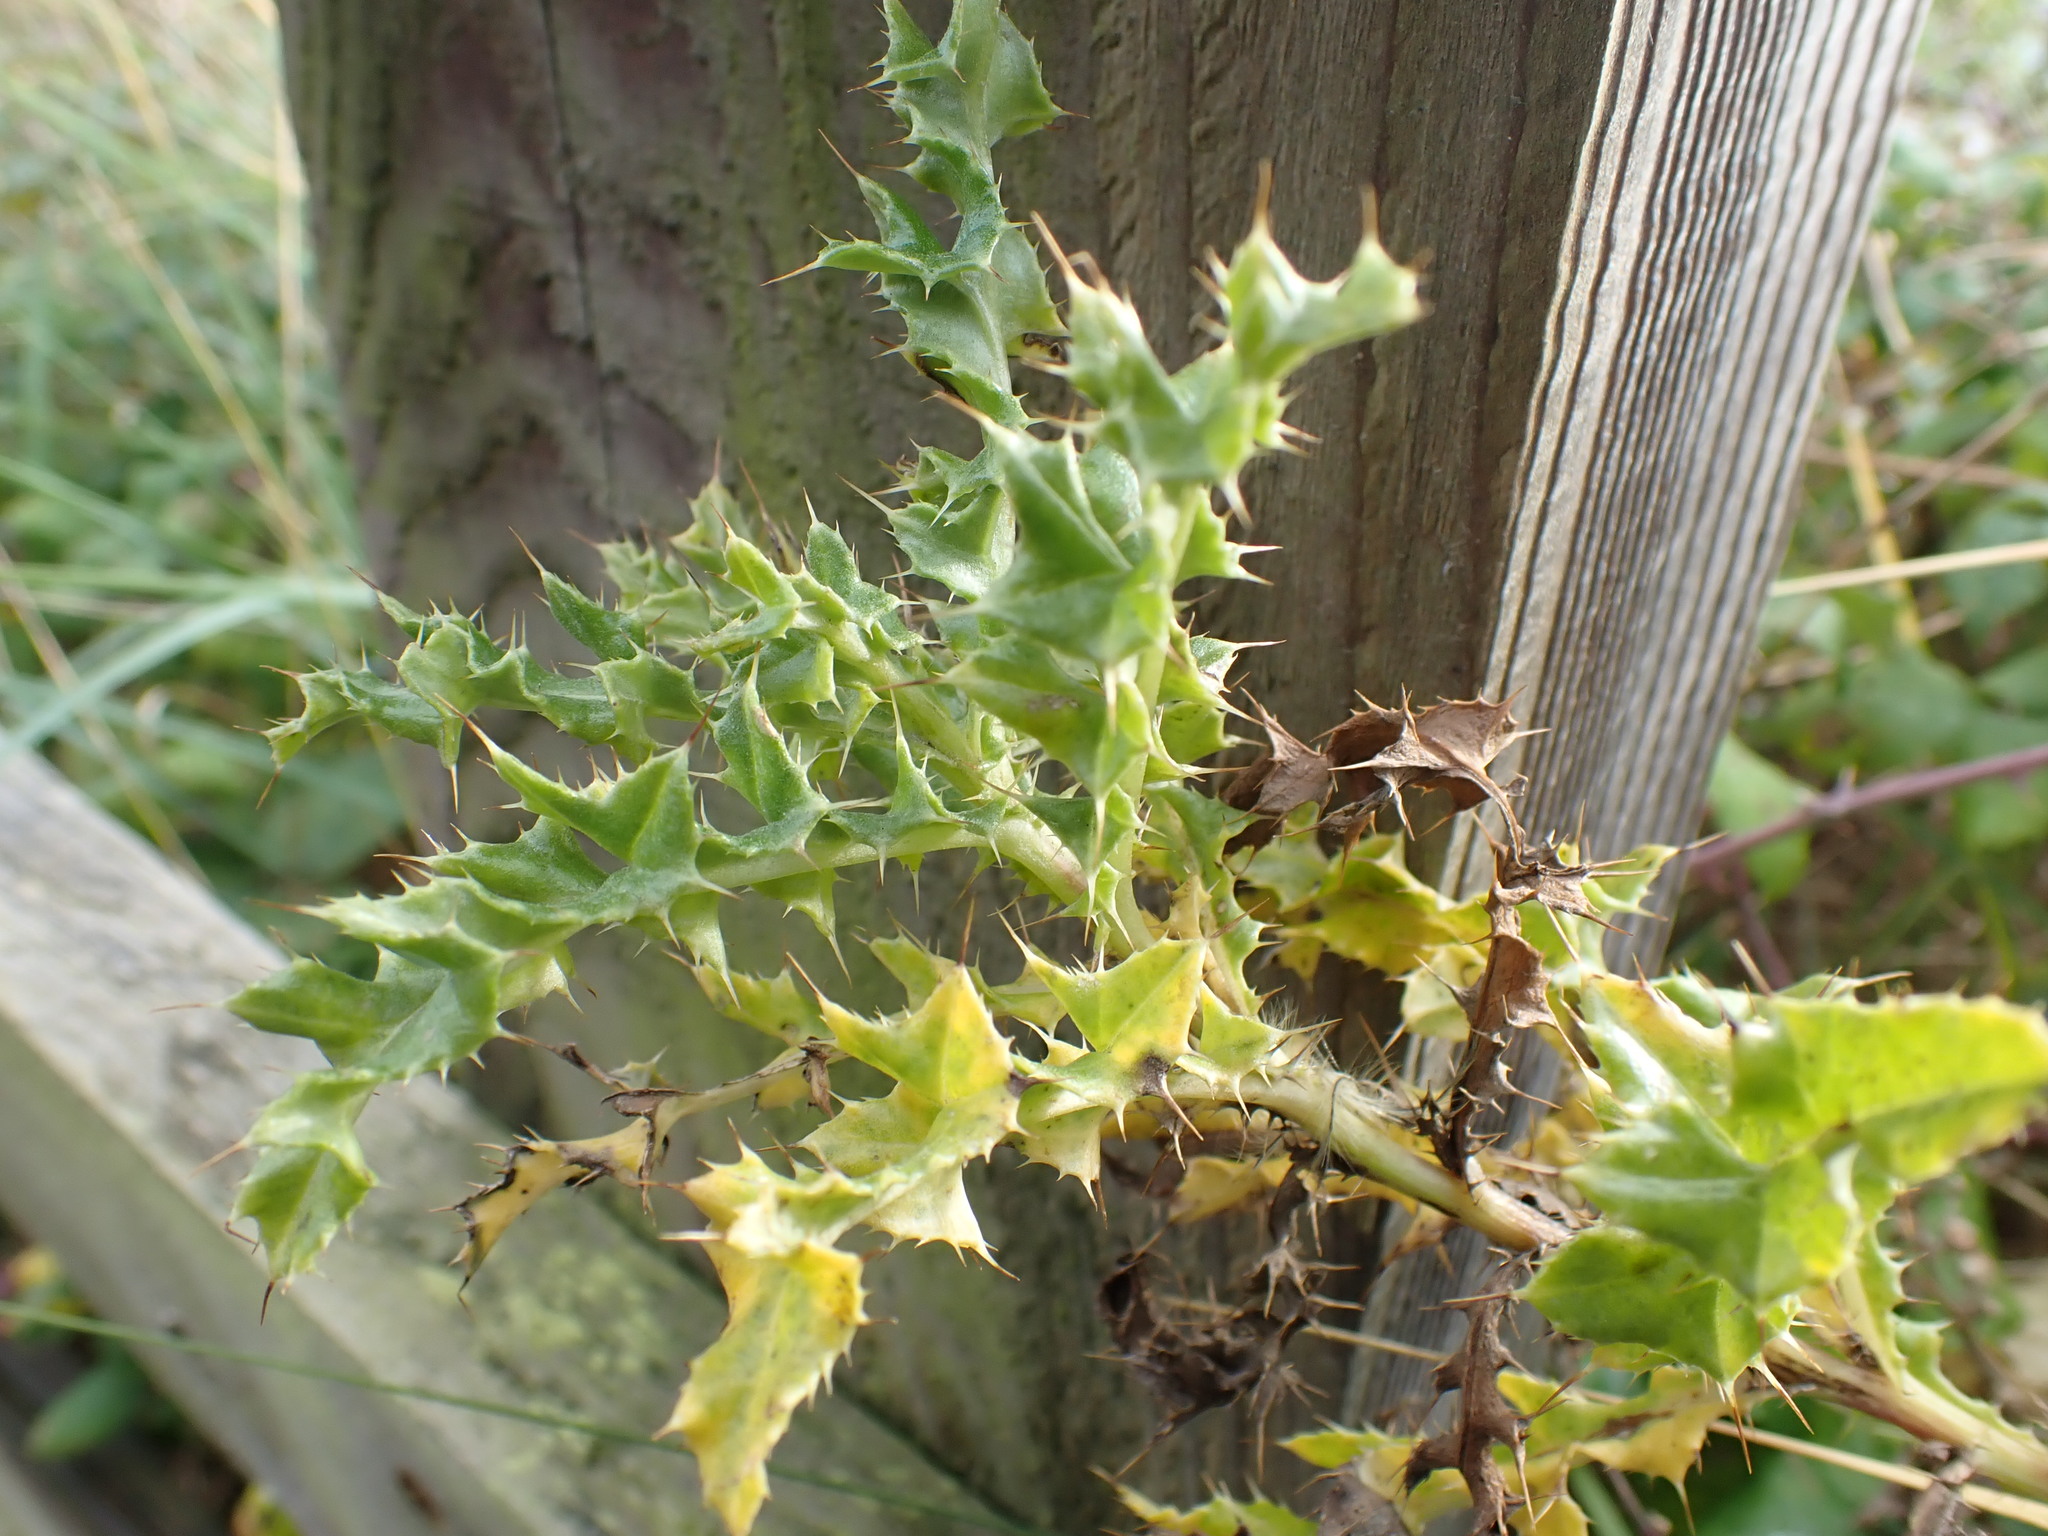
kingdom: Plantae
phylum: Tracheophyta
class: Magnoliopsida
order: Asterales
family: Asteraceae
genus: Cirsium
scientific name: Cirsium arvense
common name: Creeping thistle
